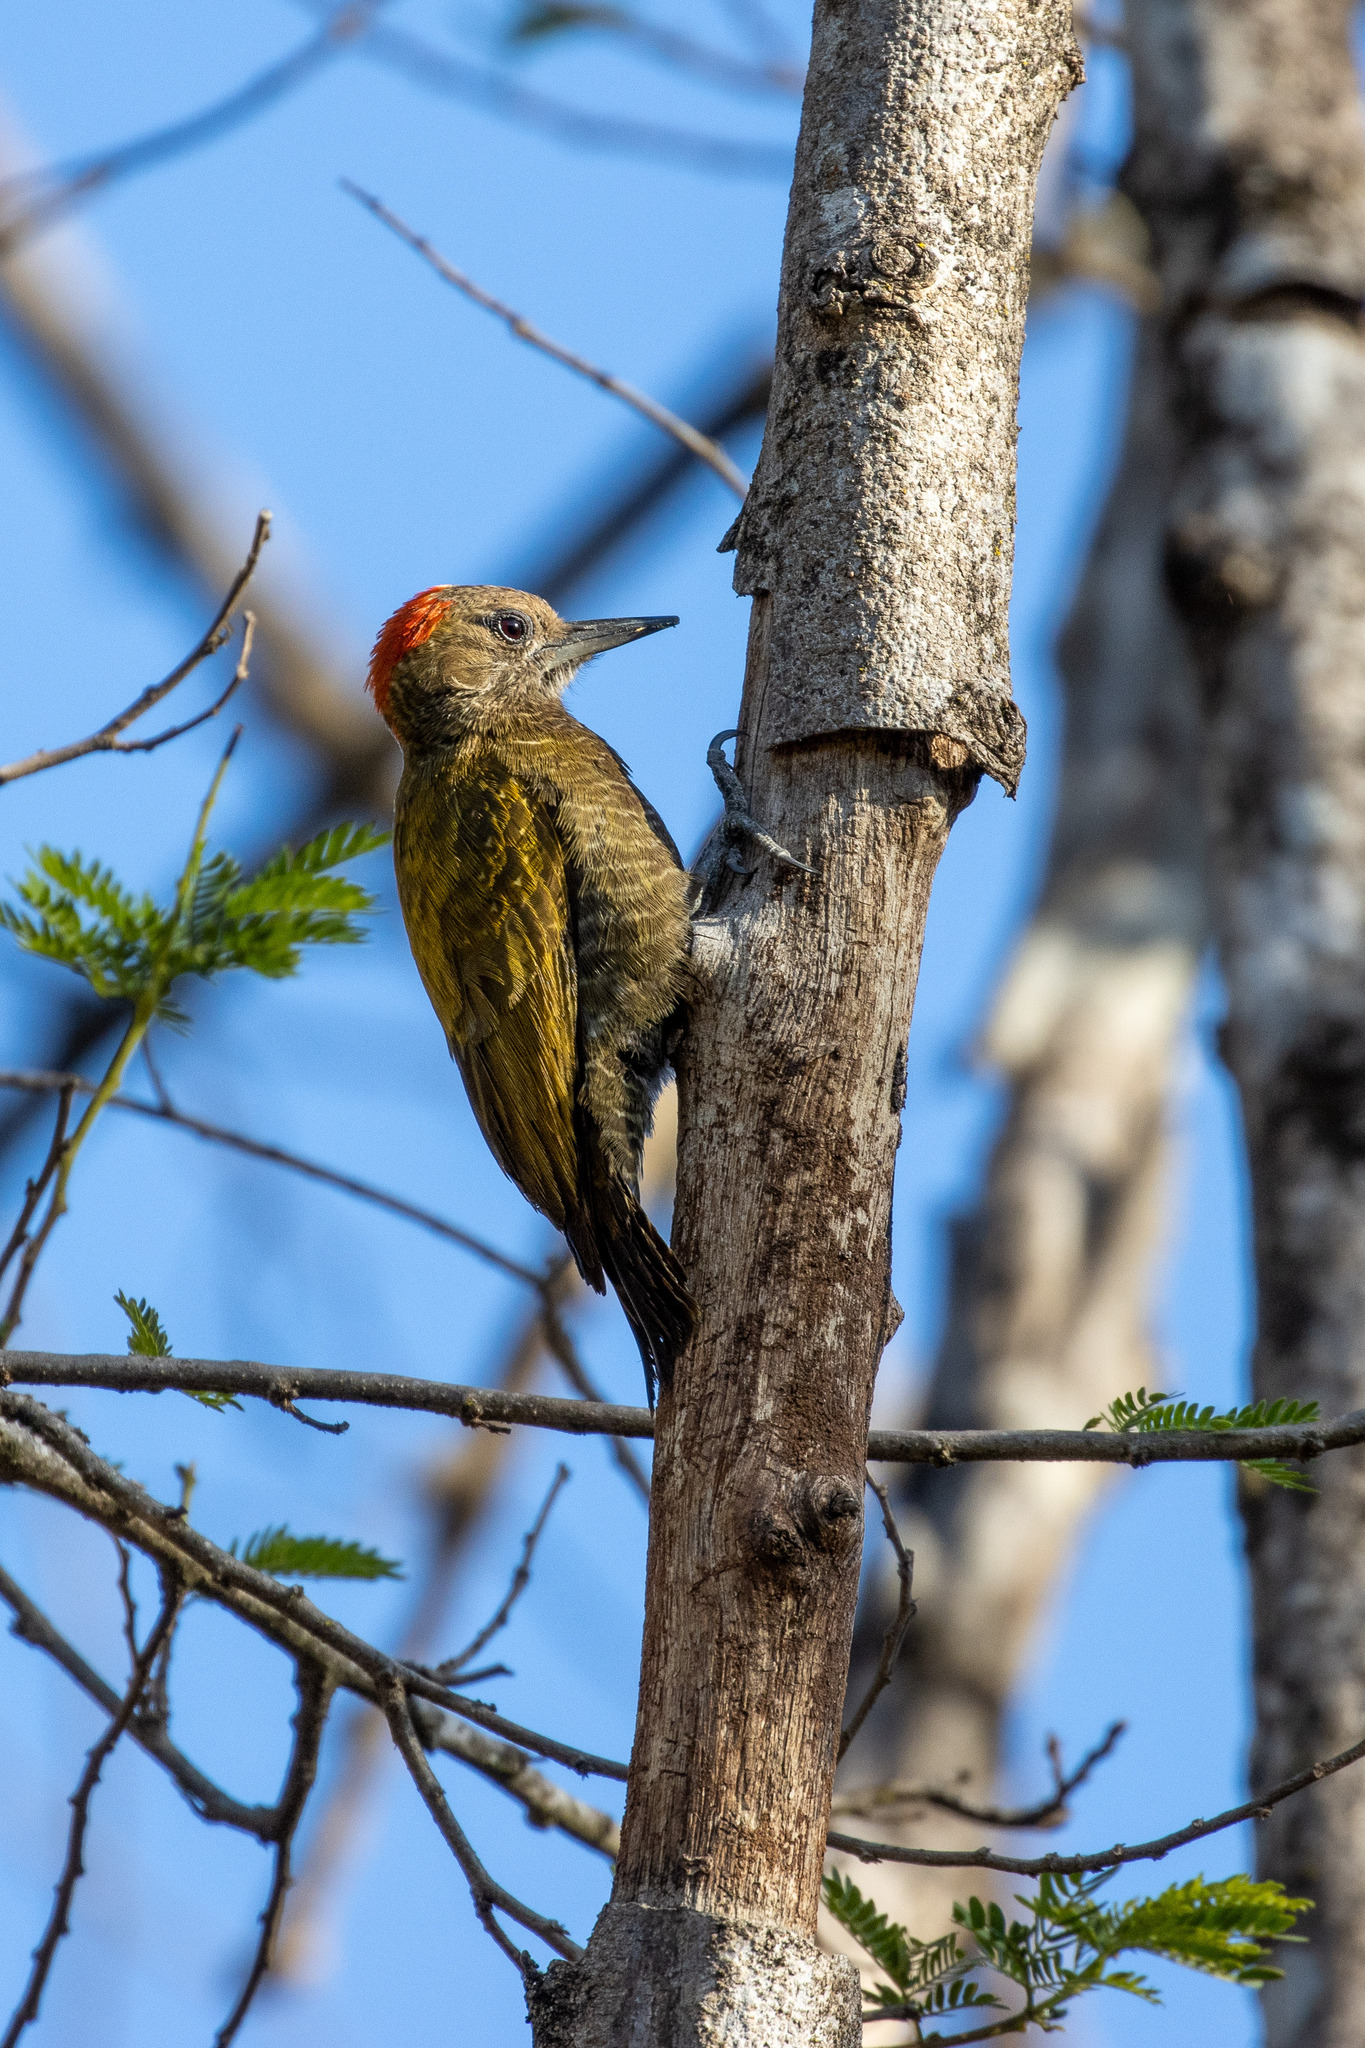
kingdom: Animalia
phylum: Chordata
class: Aves
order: Piciformes
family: Picidae
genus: Veniliornis
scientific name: Veniliornis passerinus
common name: Little woodpecker
